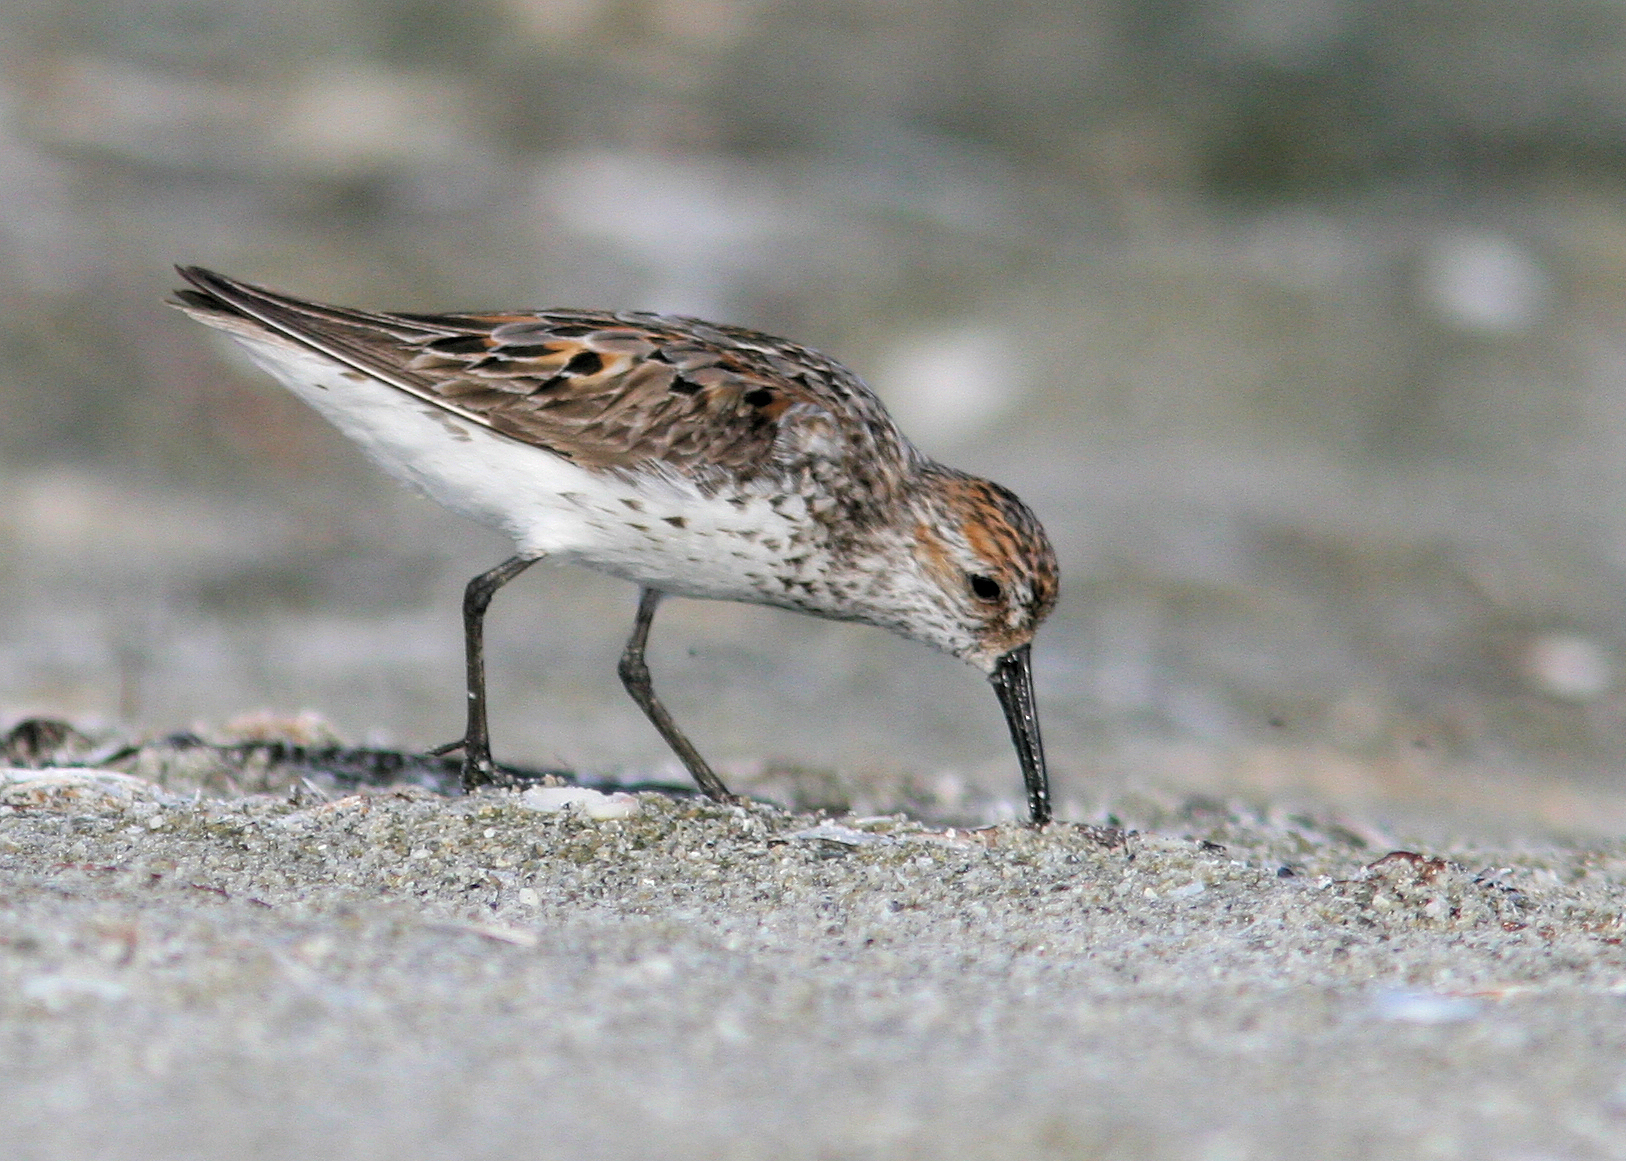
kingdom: Animalia
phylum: Chordata
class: Aves
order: Charadriiformes
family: Scolopacidae
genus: Calidris
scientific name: Calidris mauri
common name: Western sandpiper
